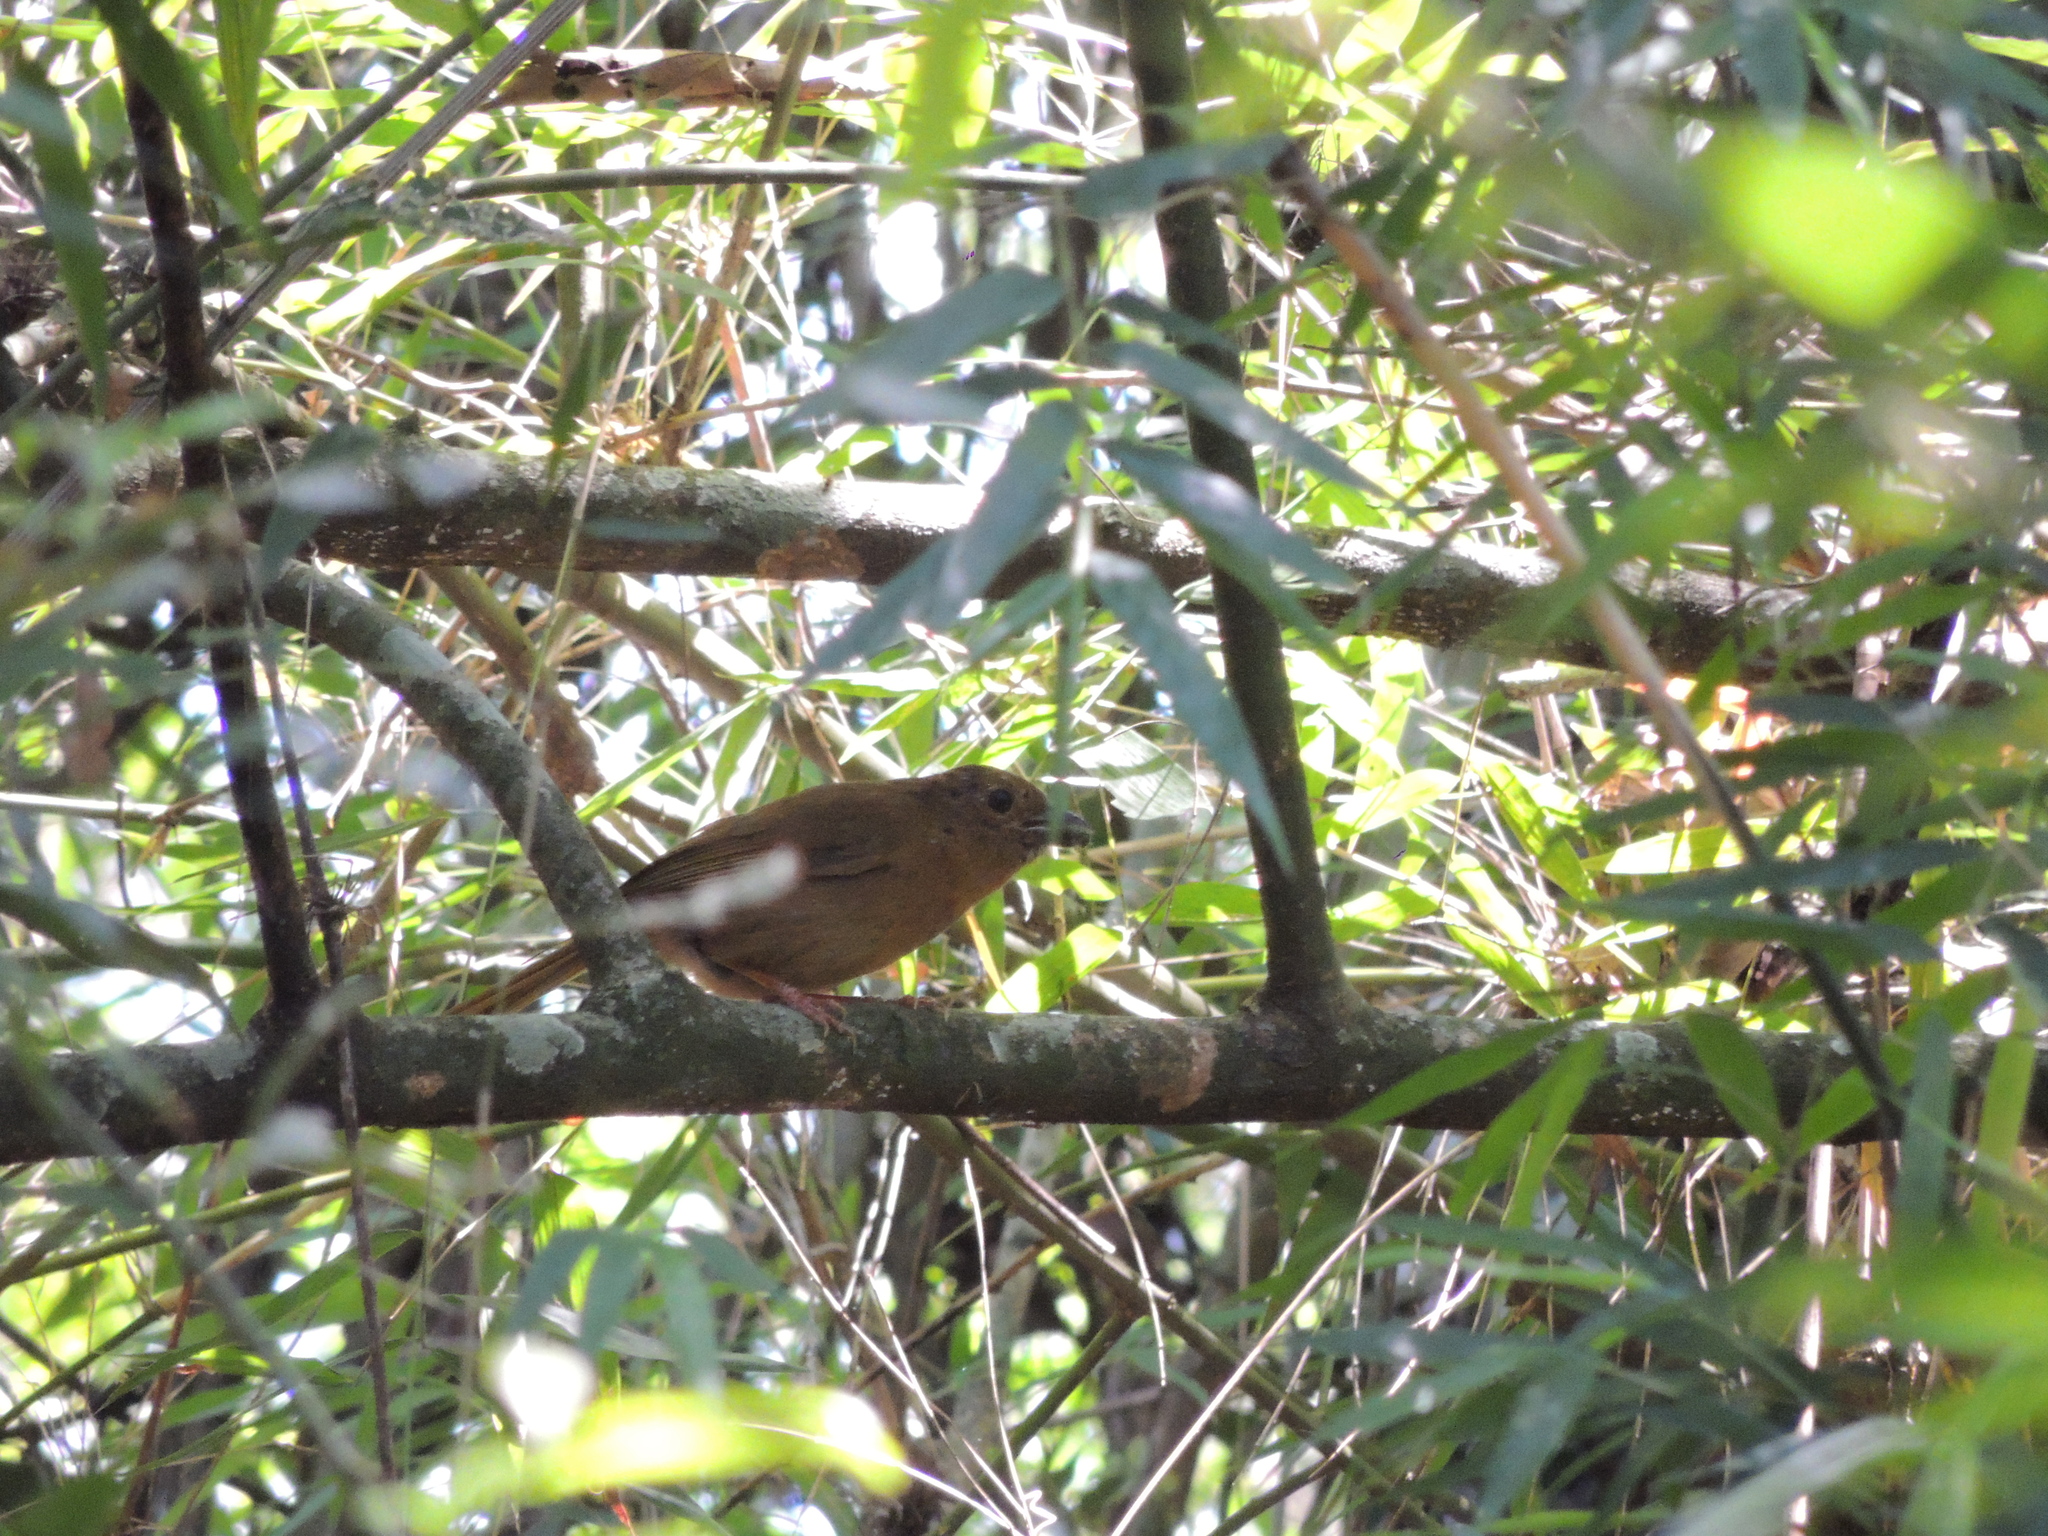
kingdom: Animalia
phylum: Chordata
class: Aves
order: Passeriformes
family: Cardinalidae
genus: Habia
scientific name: Habia rubica
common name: Red-crowned ant-tanager
